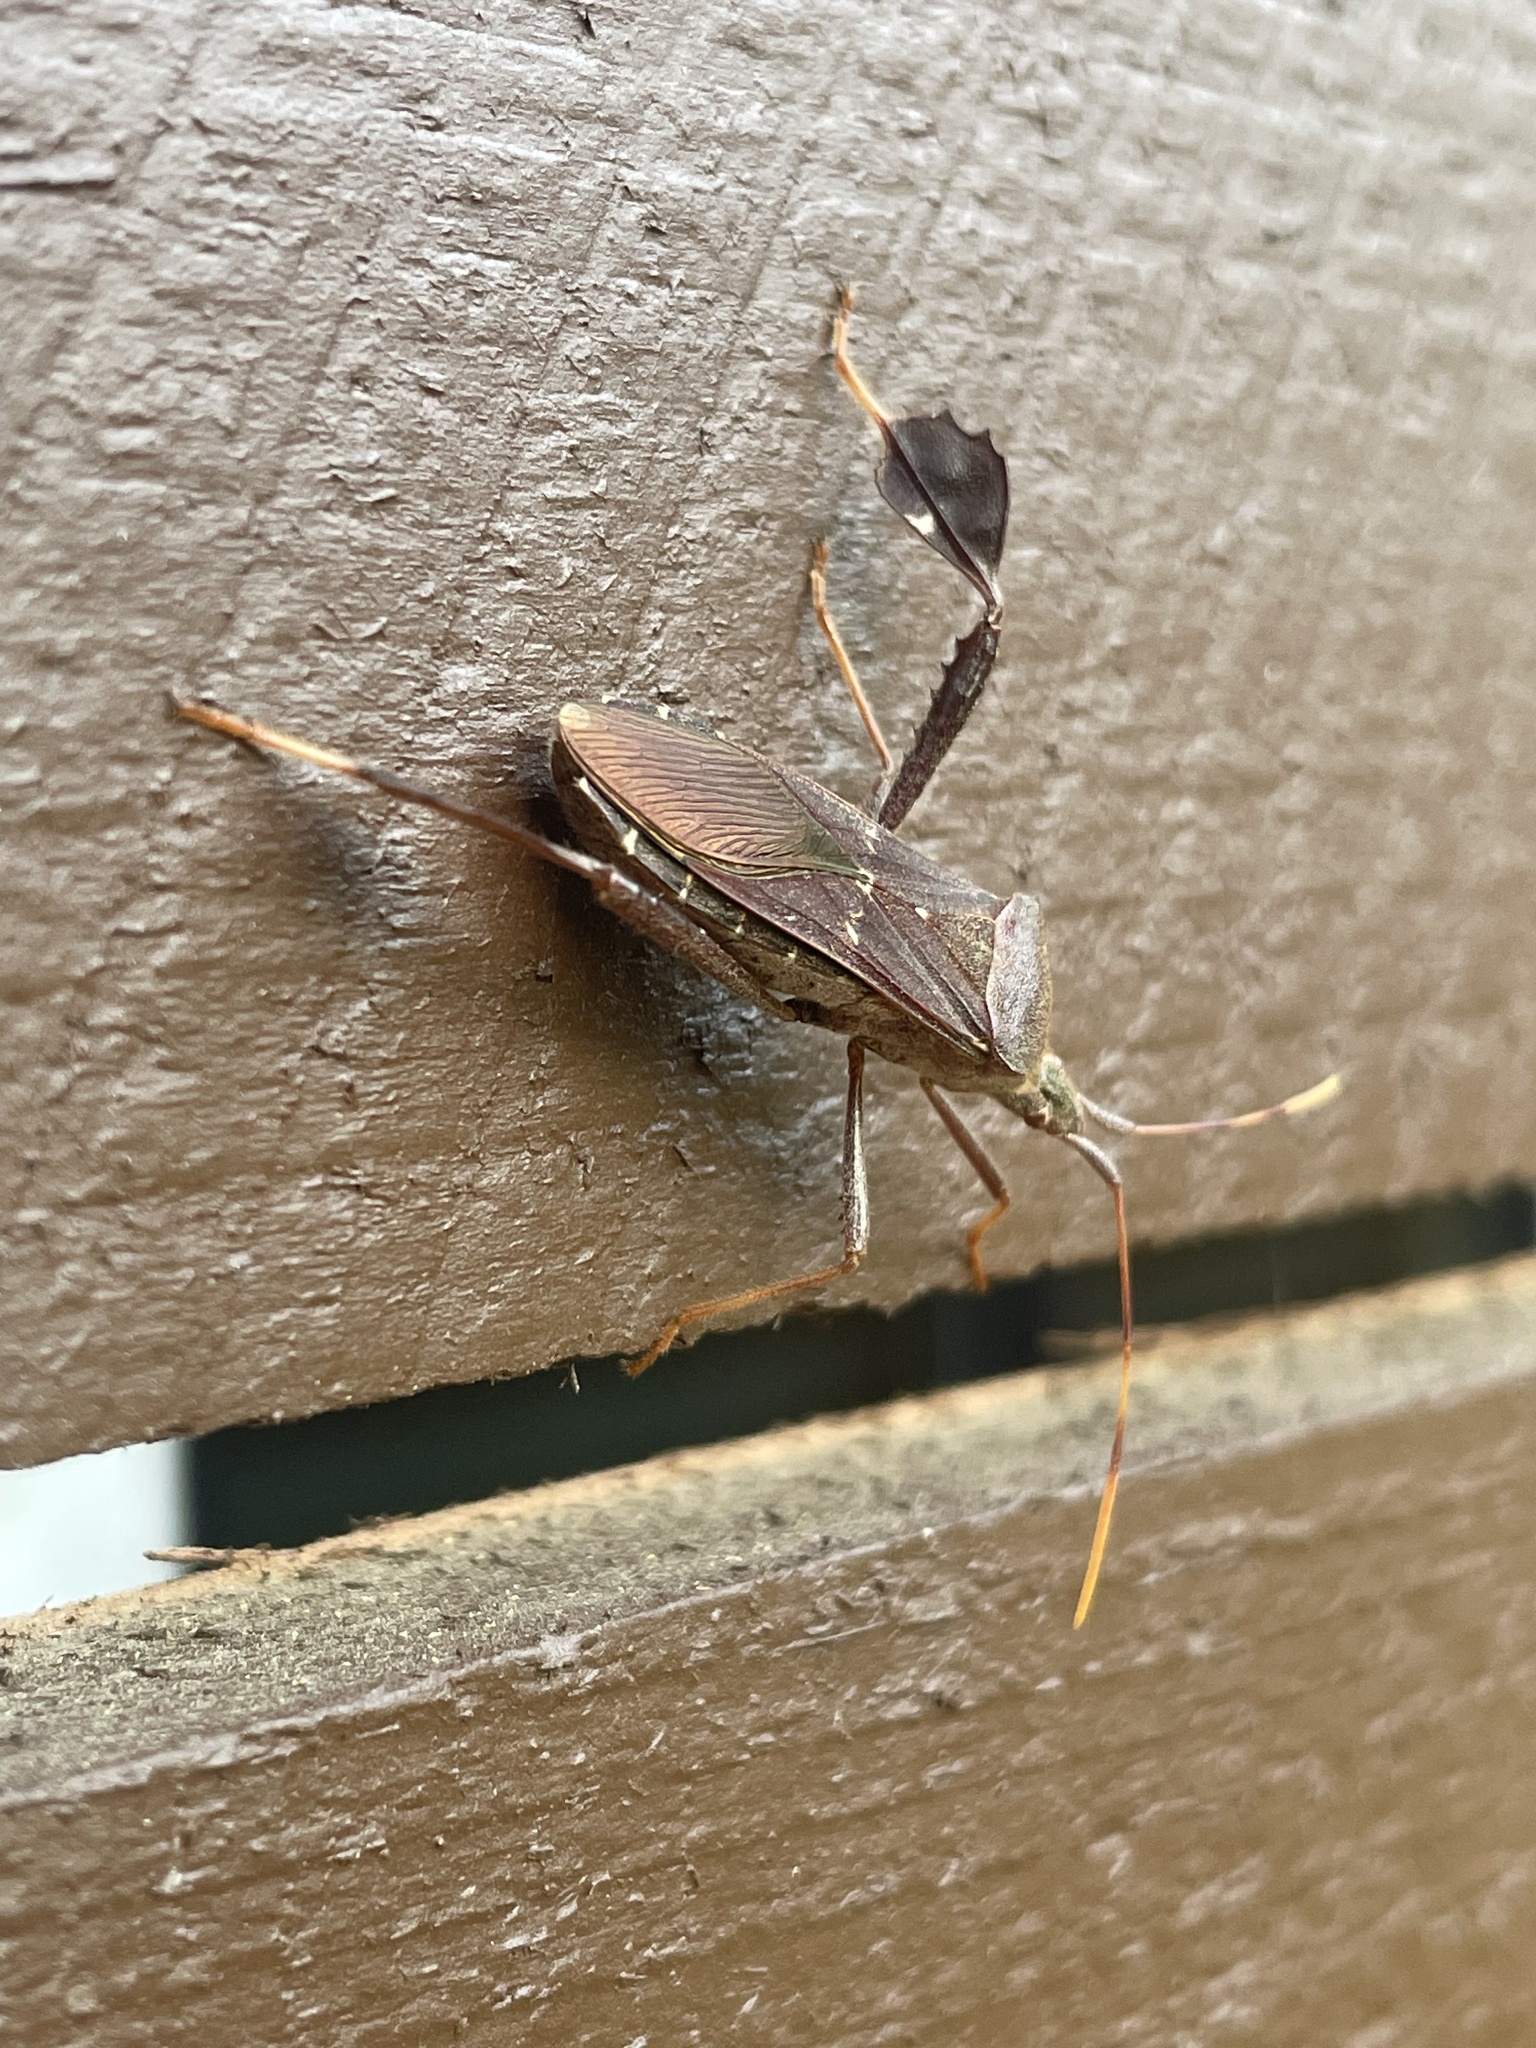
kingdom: Animalia
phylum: Arthropoda
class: Insecta
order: Hemiptera
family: Coreidae
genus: Leptoglossus
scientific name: Leptoglossus oppositus
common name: Northern leaf-footed bug
